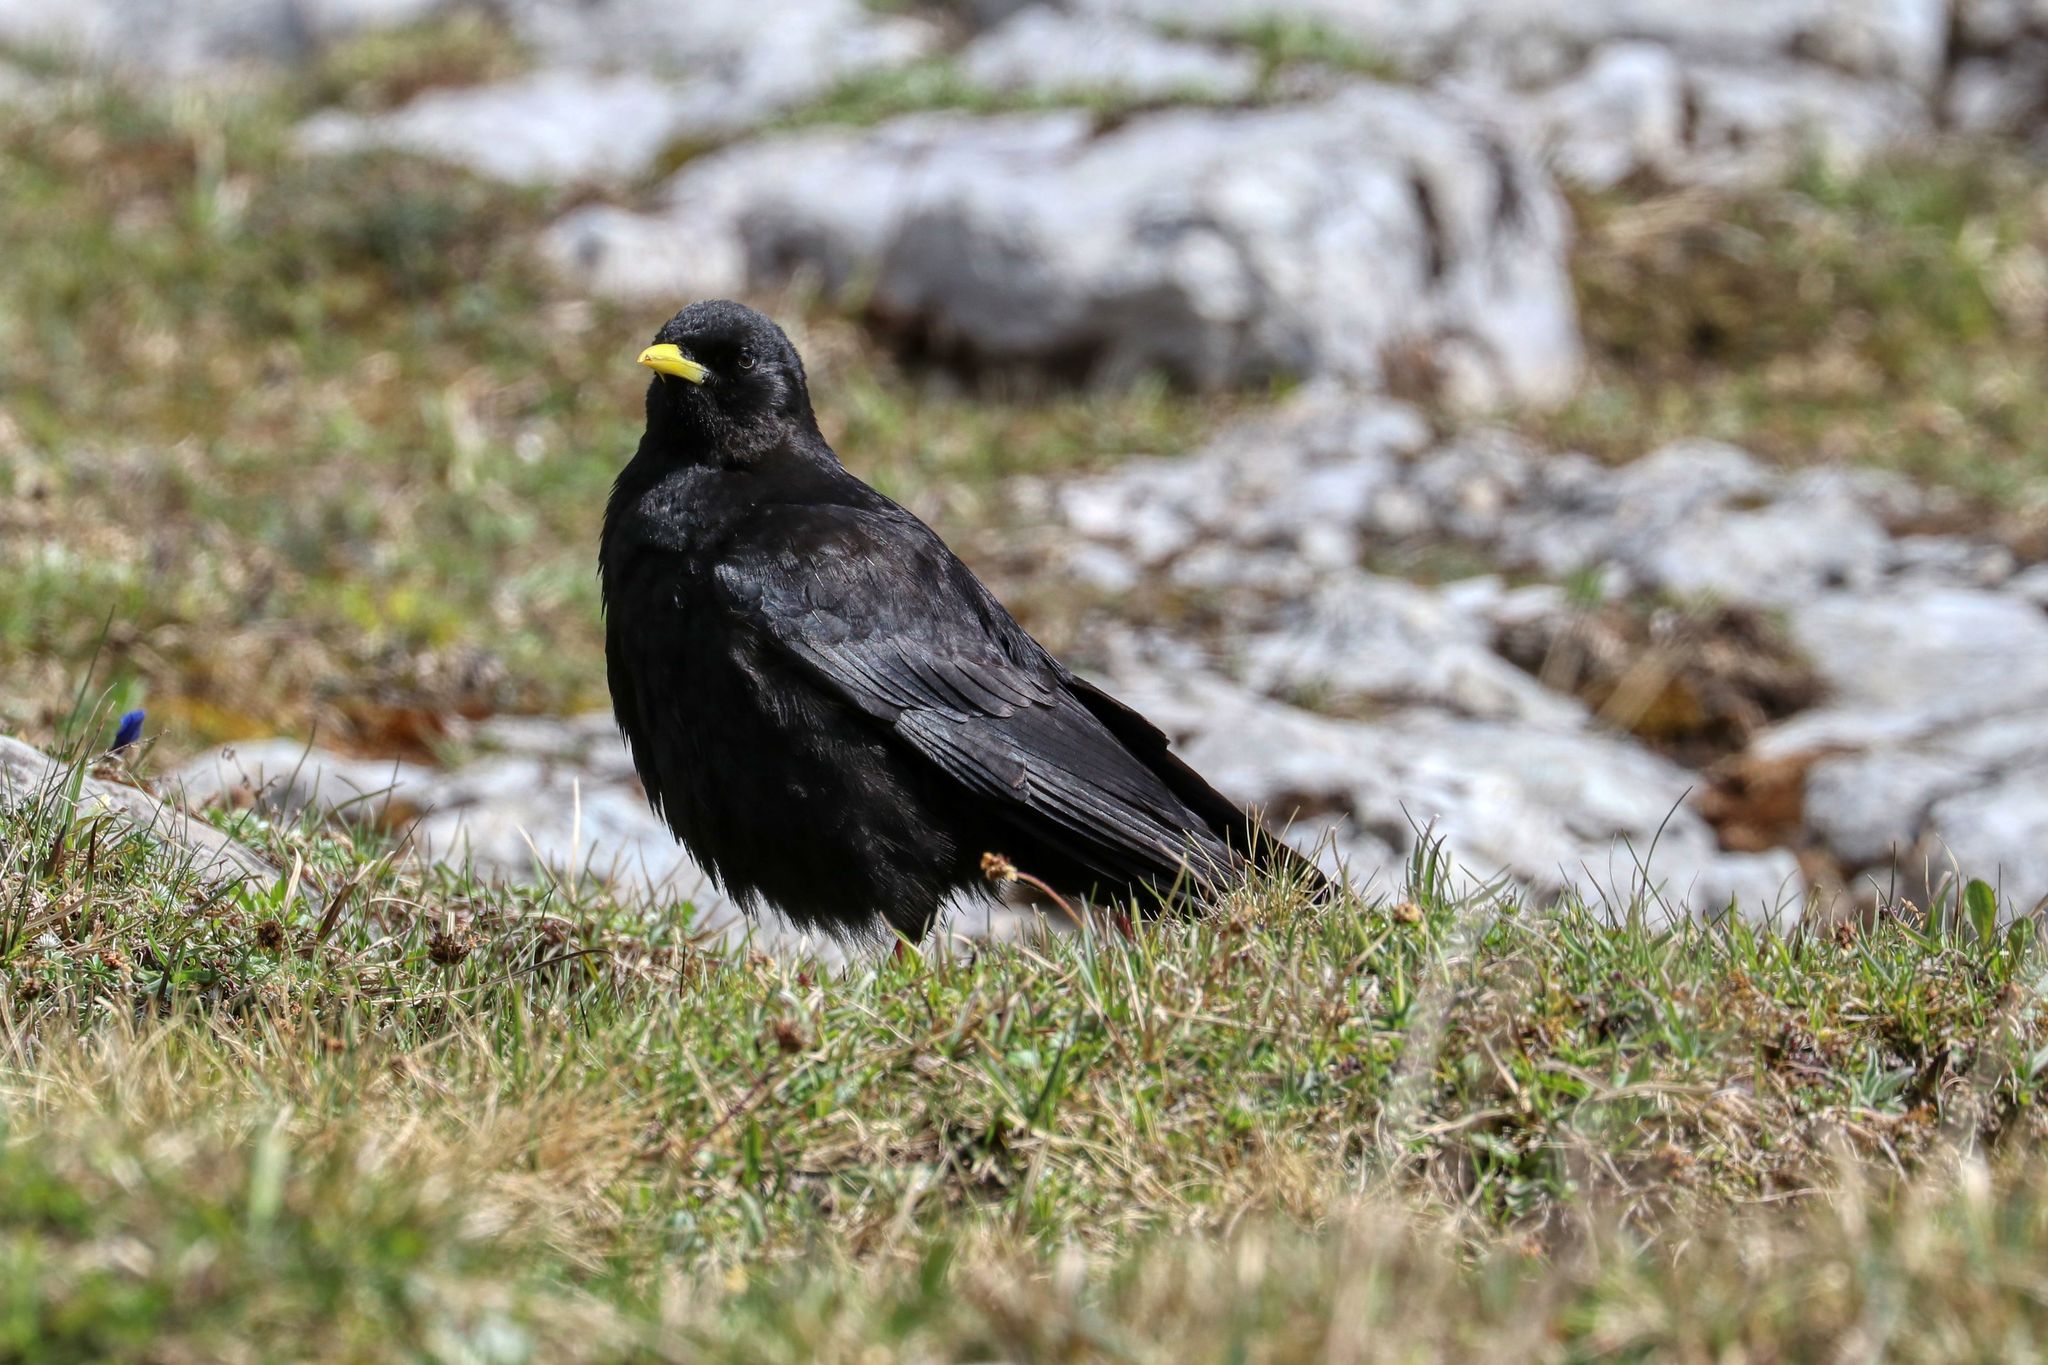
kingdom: Animalia
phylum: Chordata
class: Aves
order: Passeriformes
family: Corvidae
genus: Pyrrhocorax
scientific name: Pyrrhocorax graculus
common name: Alpine chough
